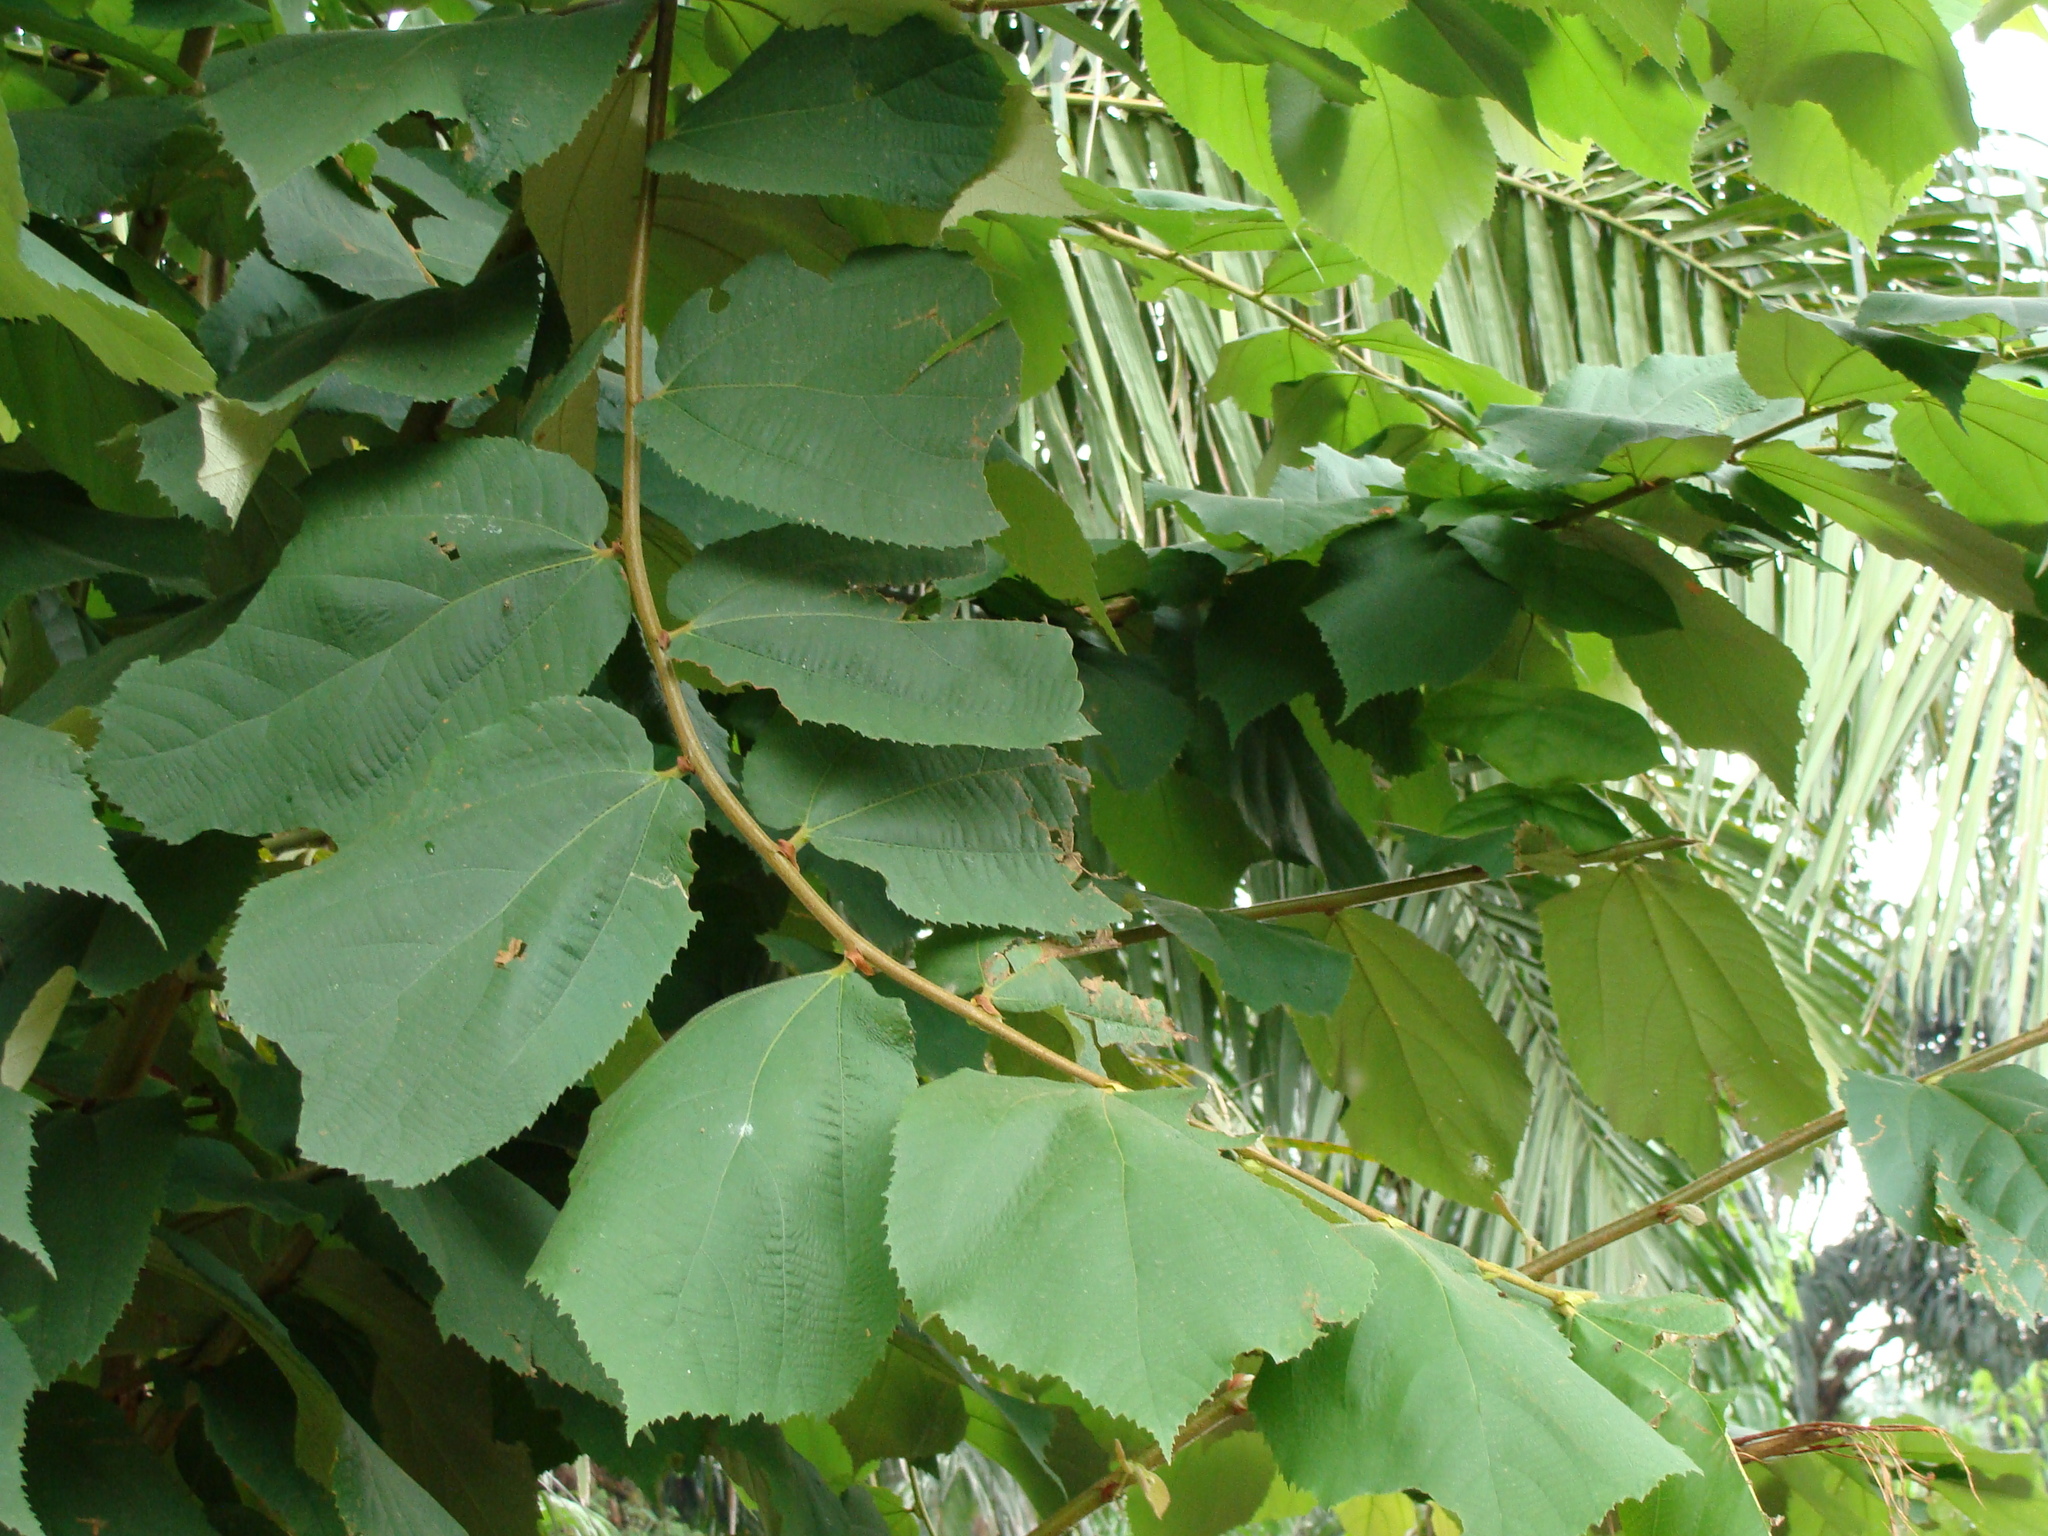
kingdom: Plantae
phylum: Tracheophyta
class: Magnoliopsida
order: Malvales
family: Malvaceae
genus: Luehea
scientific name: Luehea candida
